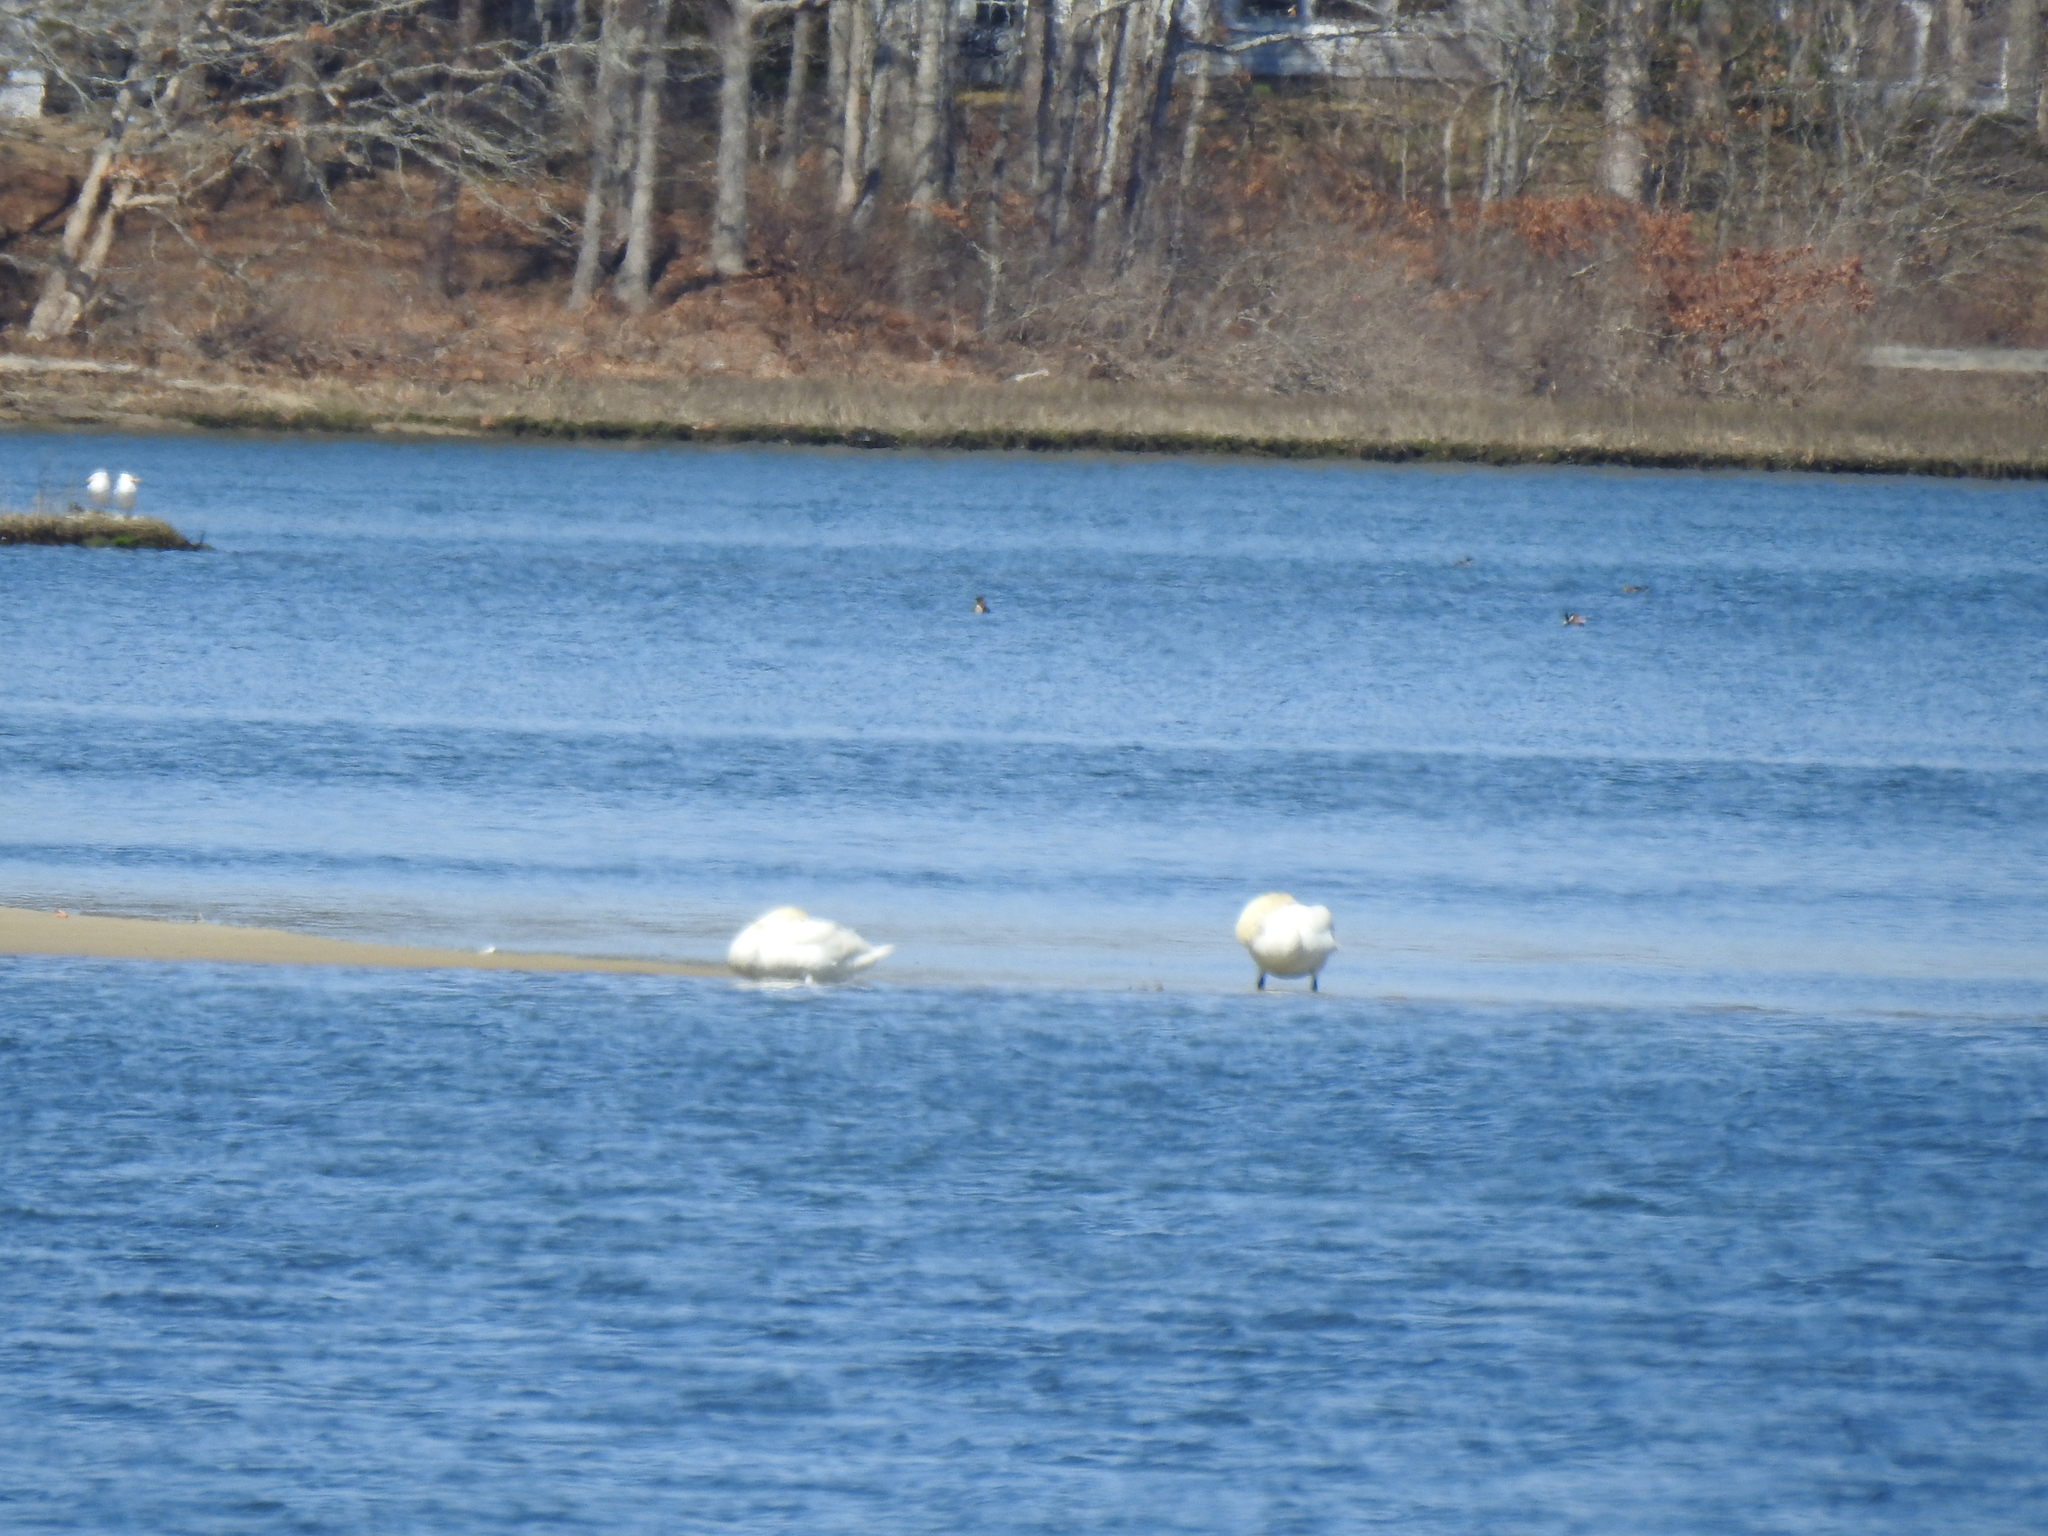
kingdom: Animalia
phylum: Chordata
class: Aves
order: Anseriformes
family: Anatidae
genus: Cygnus
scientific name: Cygnus olor
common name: Mute swan
